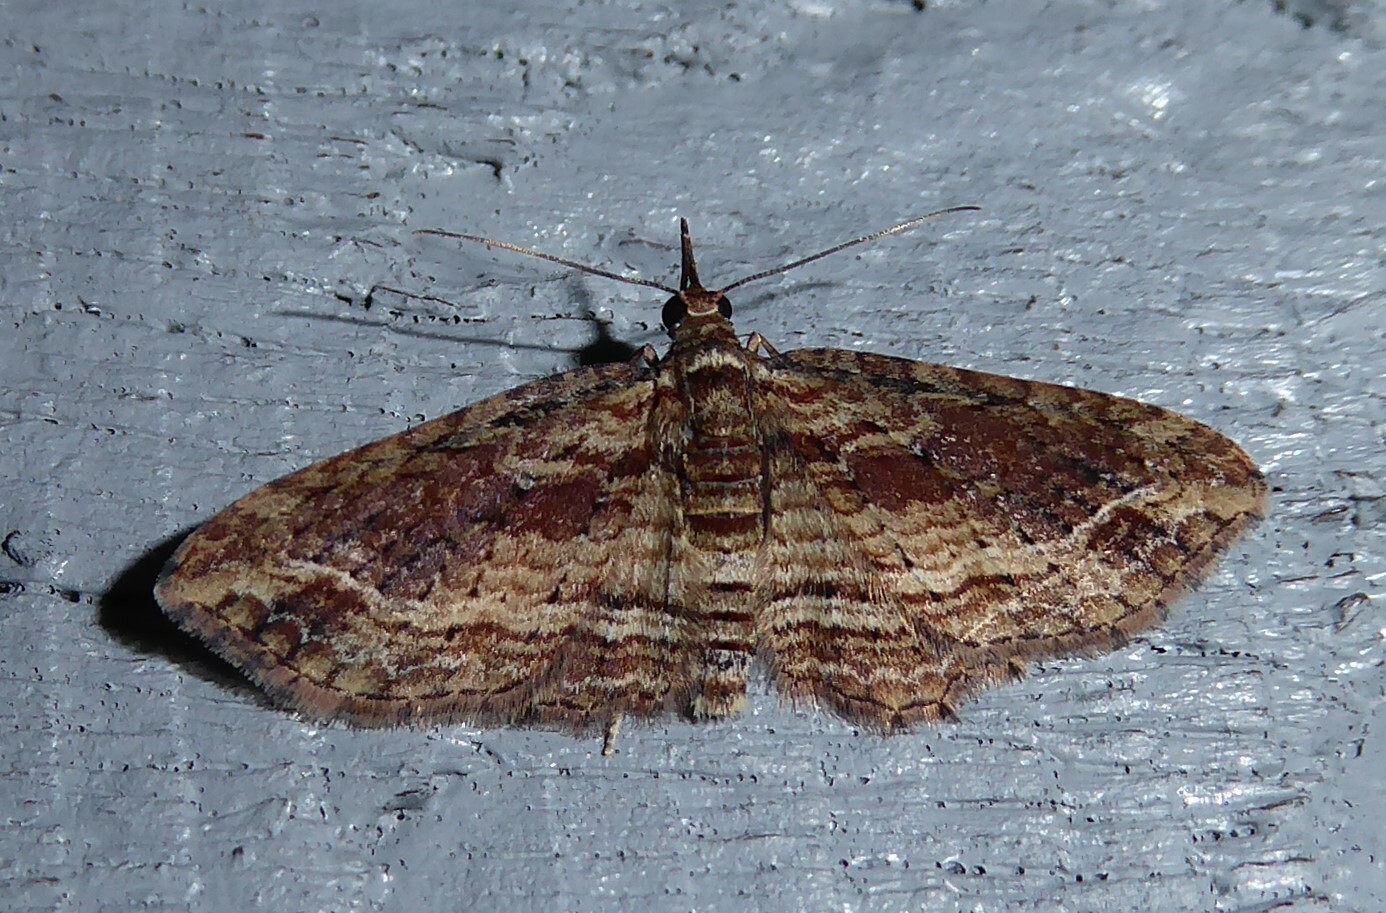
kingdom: Animalia
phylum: Arthropoda
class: Insecta
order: Lepidoptera
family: Geometridae
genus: Chloroclystis
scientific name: Chloroclystis filata
